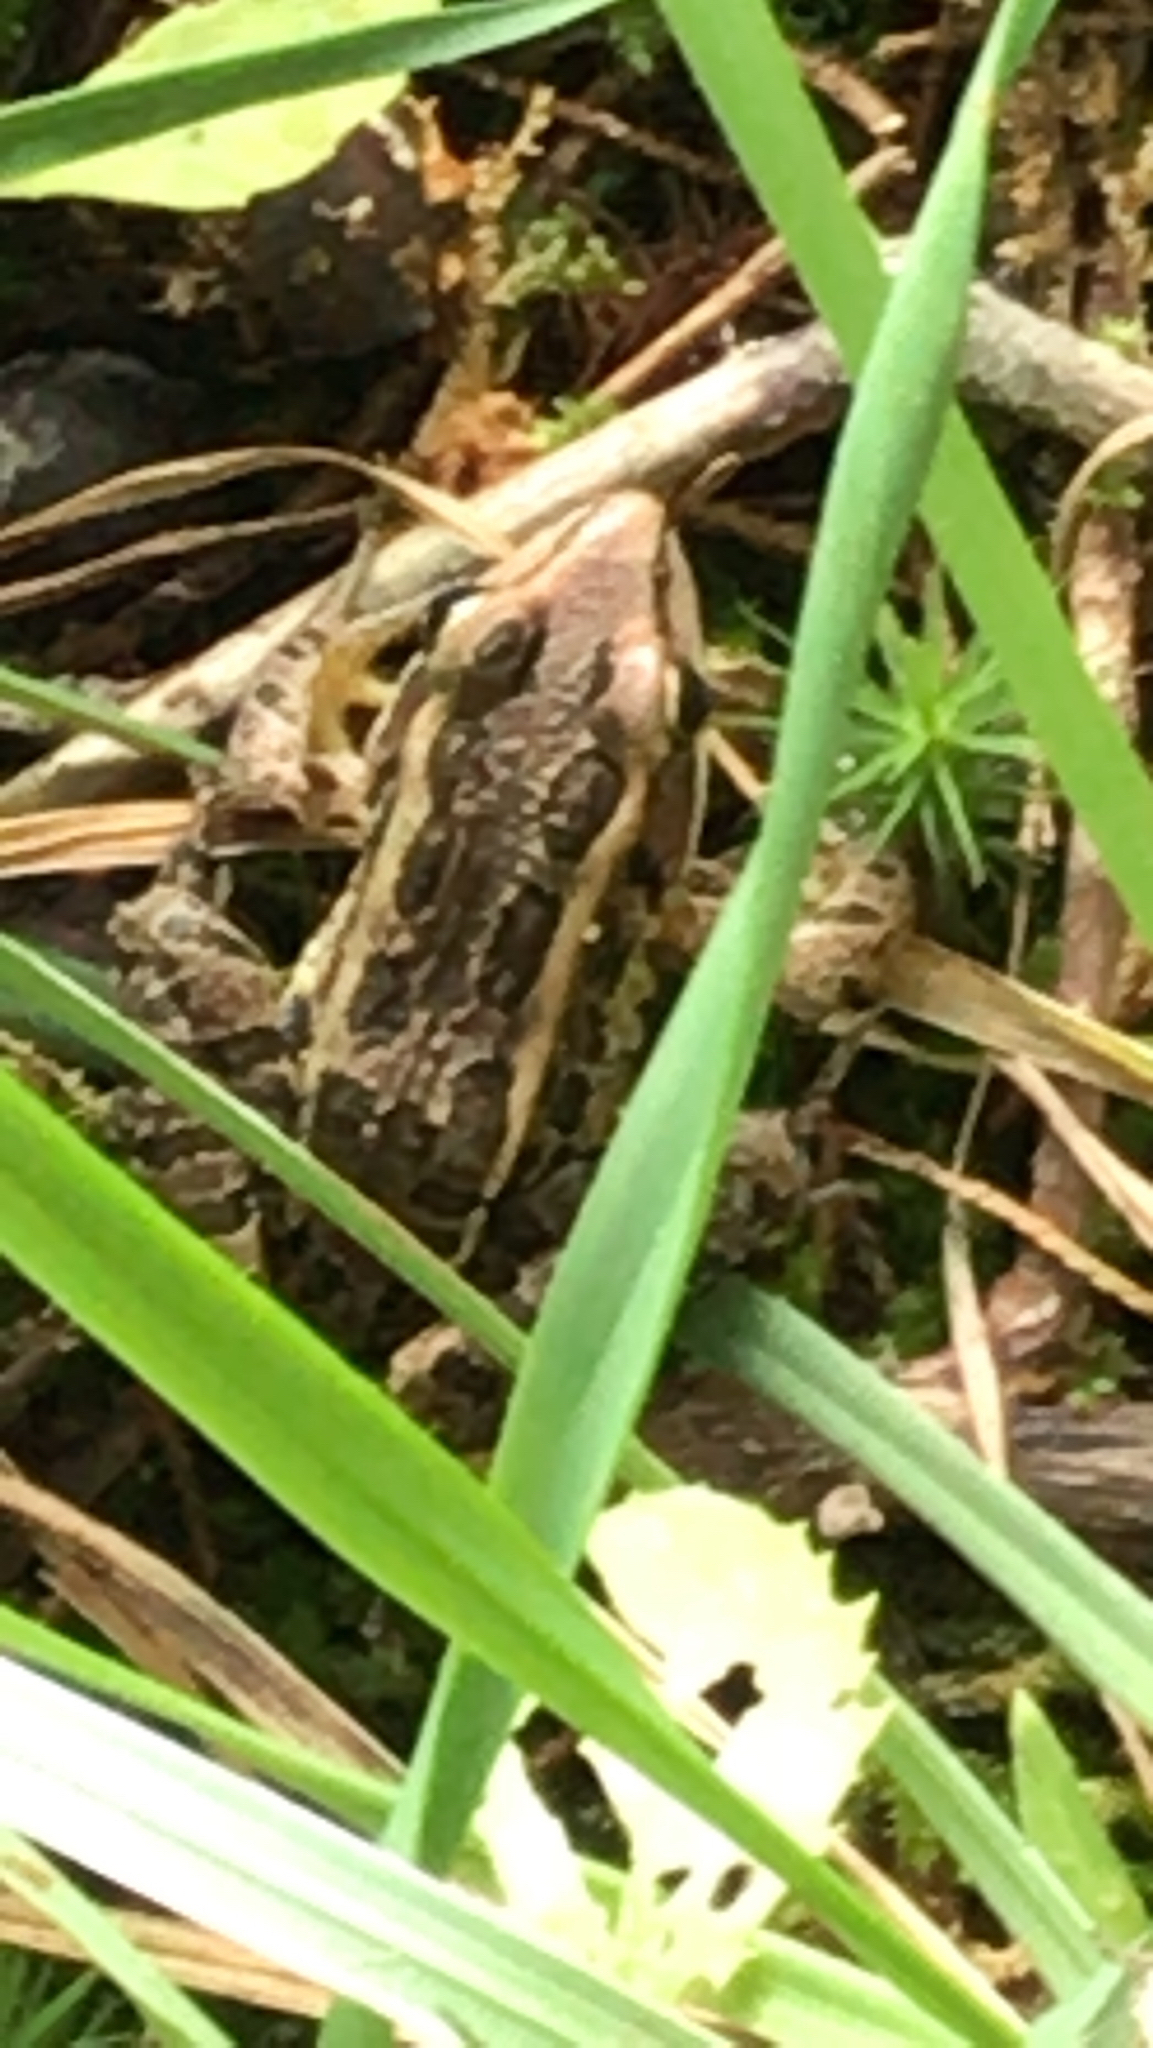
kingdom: Animalia
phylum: Chordata
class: Amphibia
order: Anura
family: Ranidae
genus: Lithobates
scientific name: Lithobates palustris
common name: Pickerel frog
